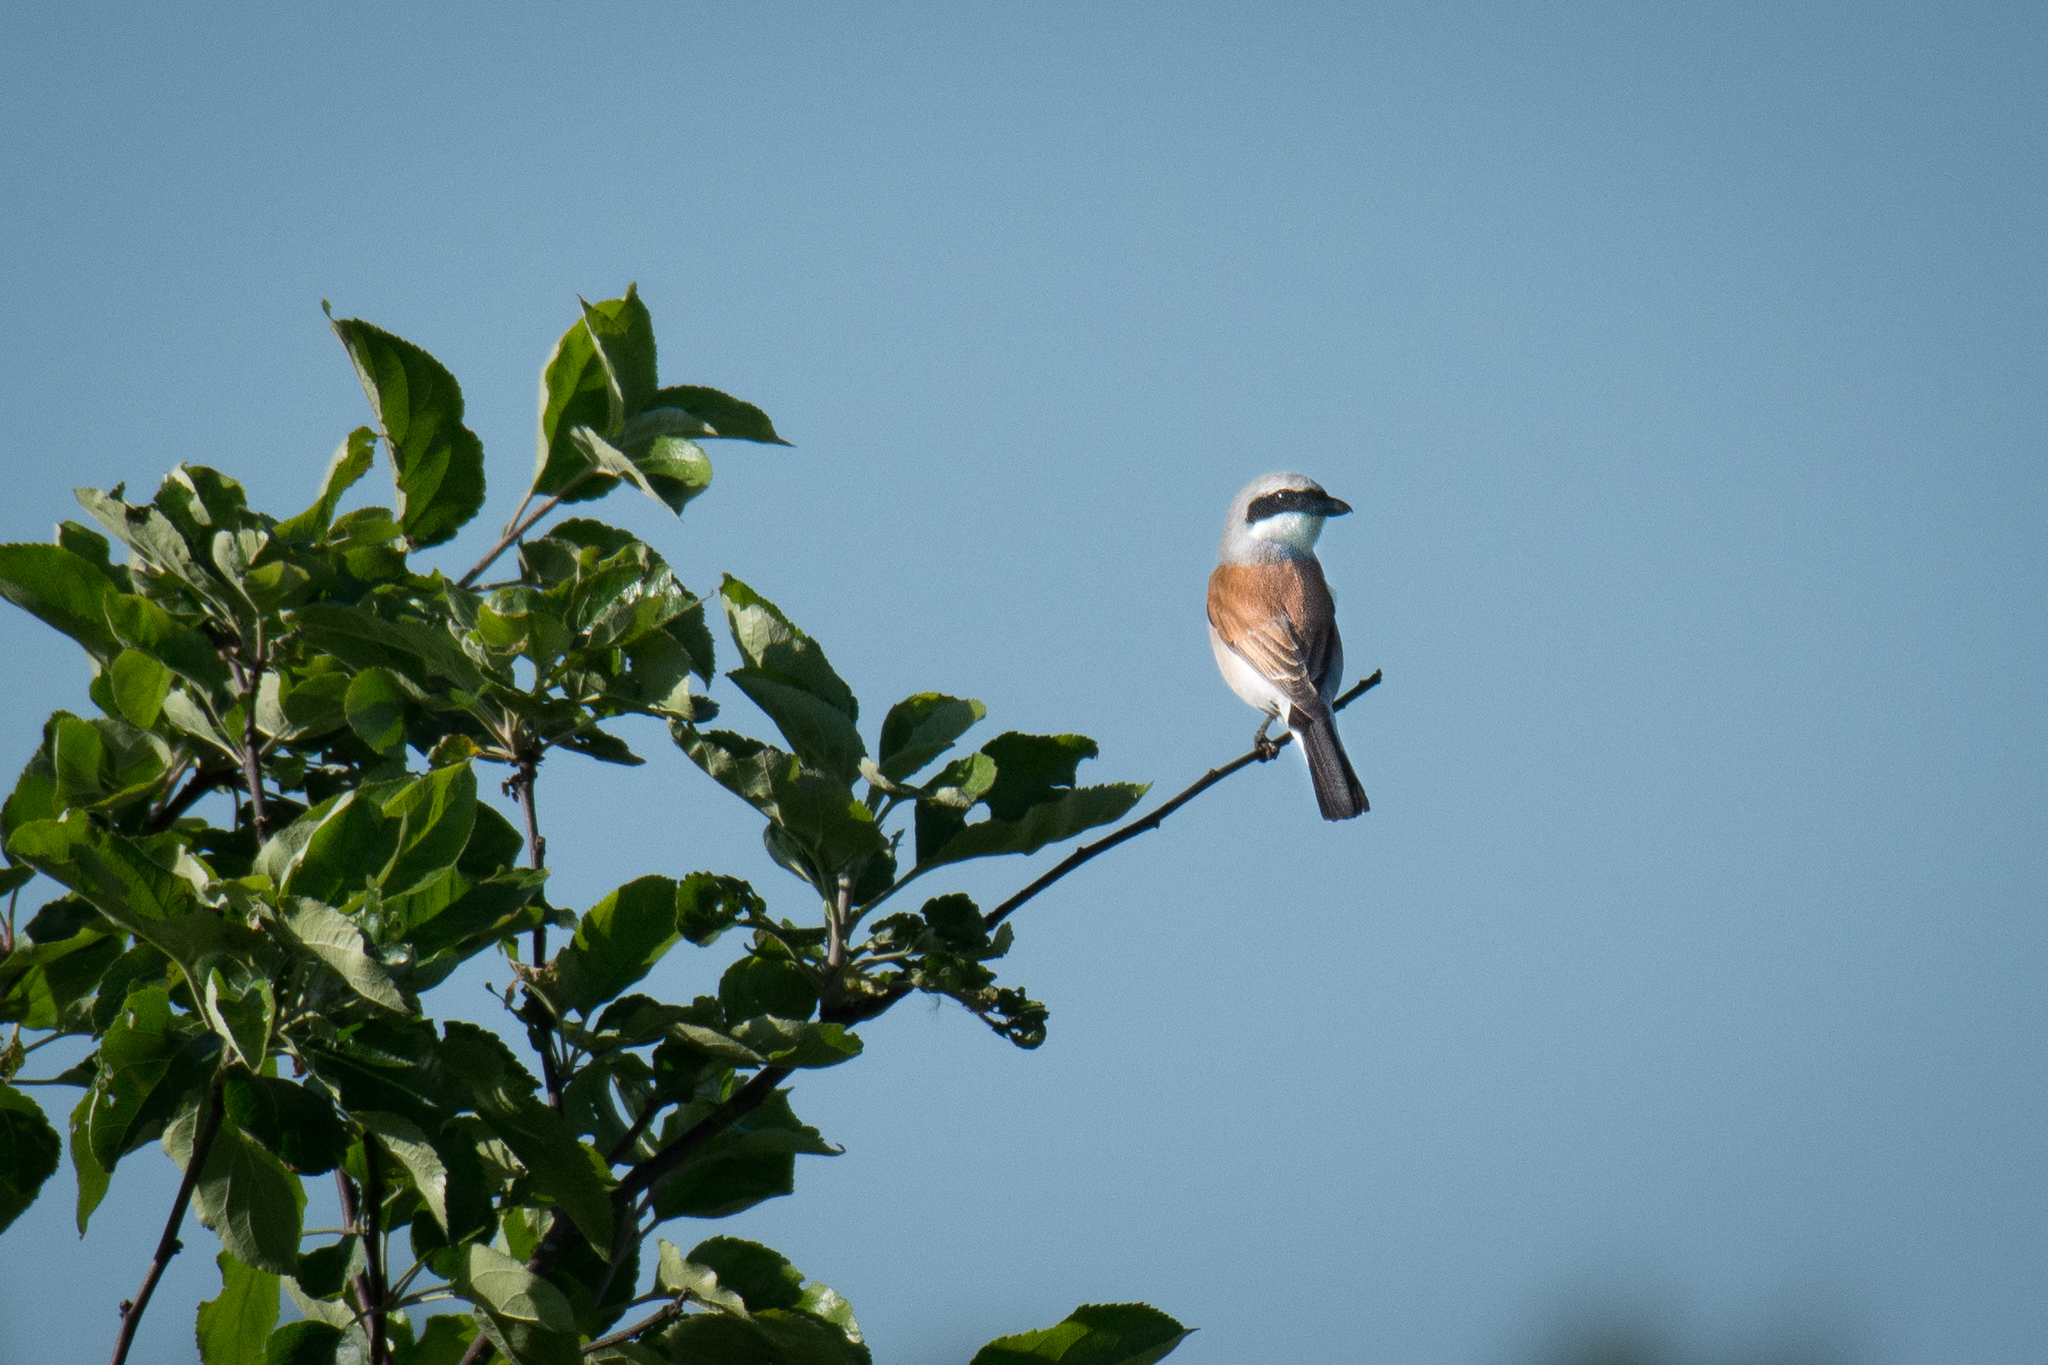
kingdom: Animalia
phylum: Chordata
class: Aves
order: Passeriformes
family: Laniidae
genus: Lanius
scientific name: Lanius collurio
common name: Red-backed shrike
